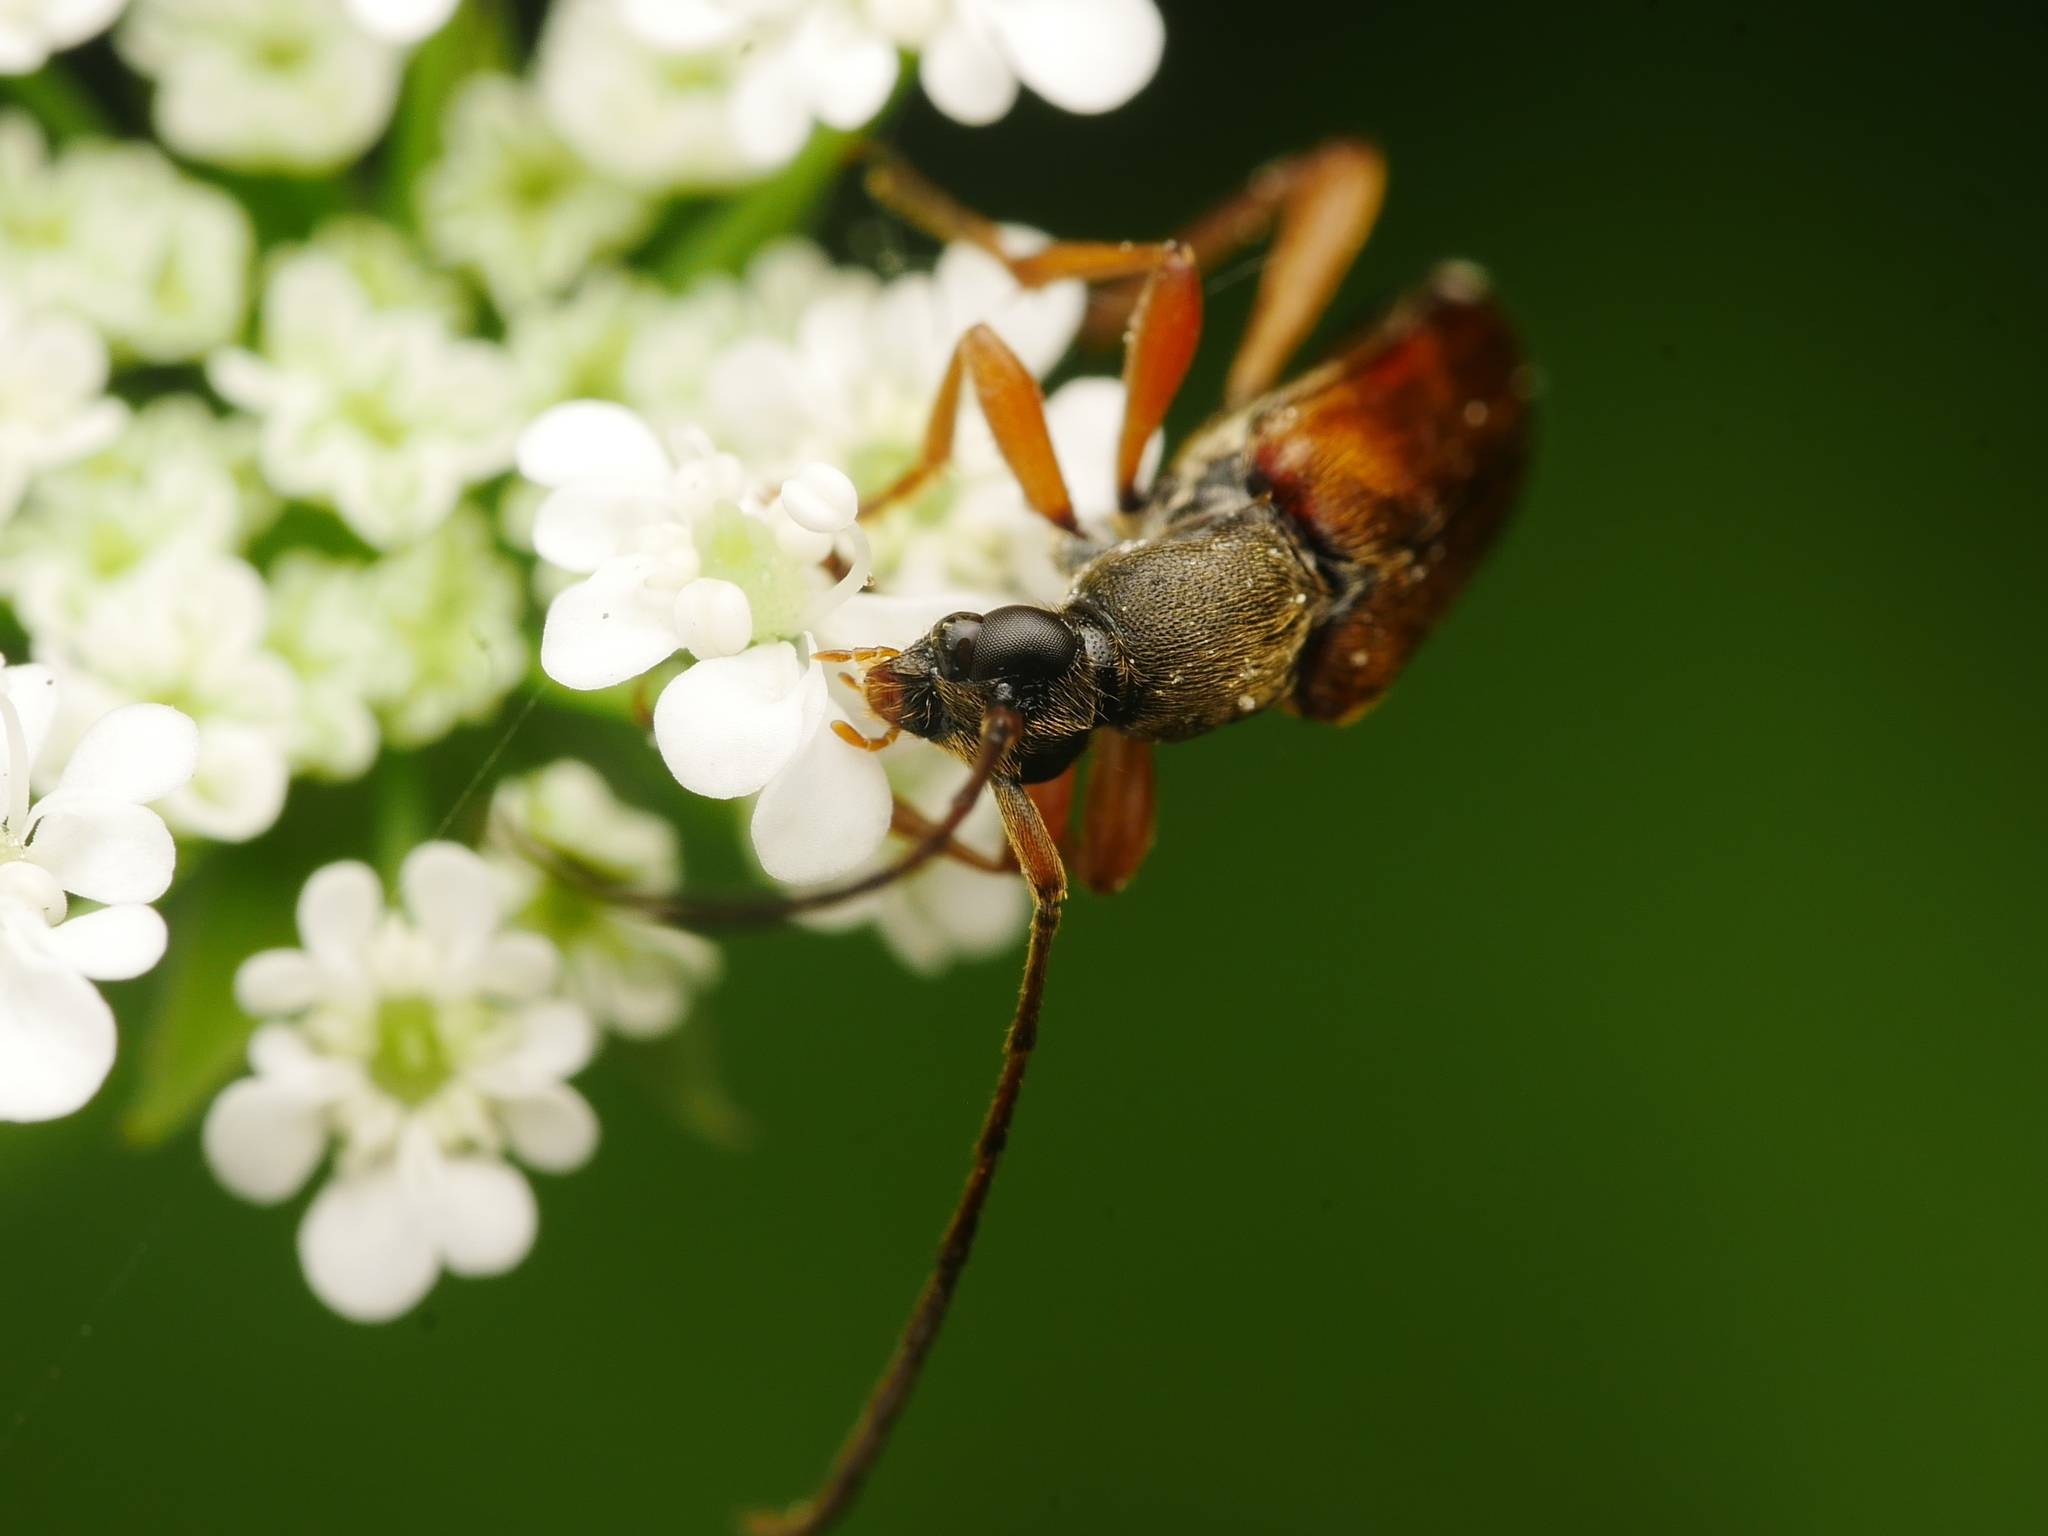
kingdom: Animalia
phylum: Arthropoda
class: Insecta
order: Coleoptera
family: Cerambycidae
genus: Alosterna
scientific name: Alosterna tabacicolor
